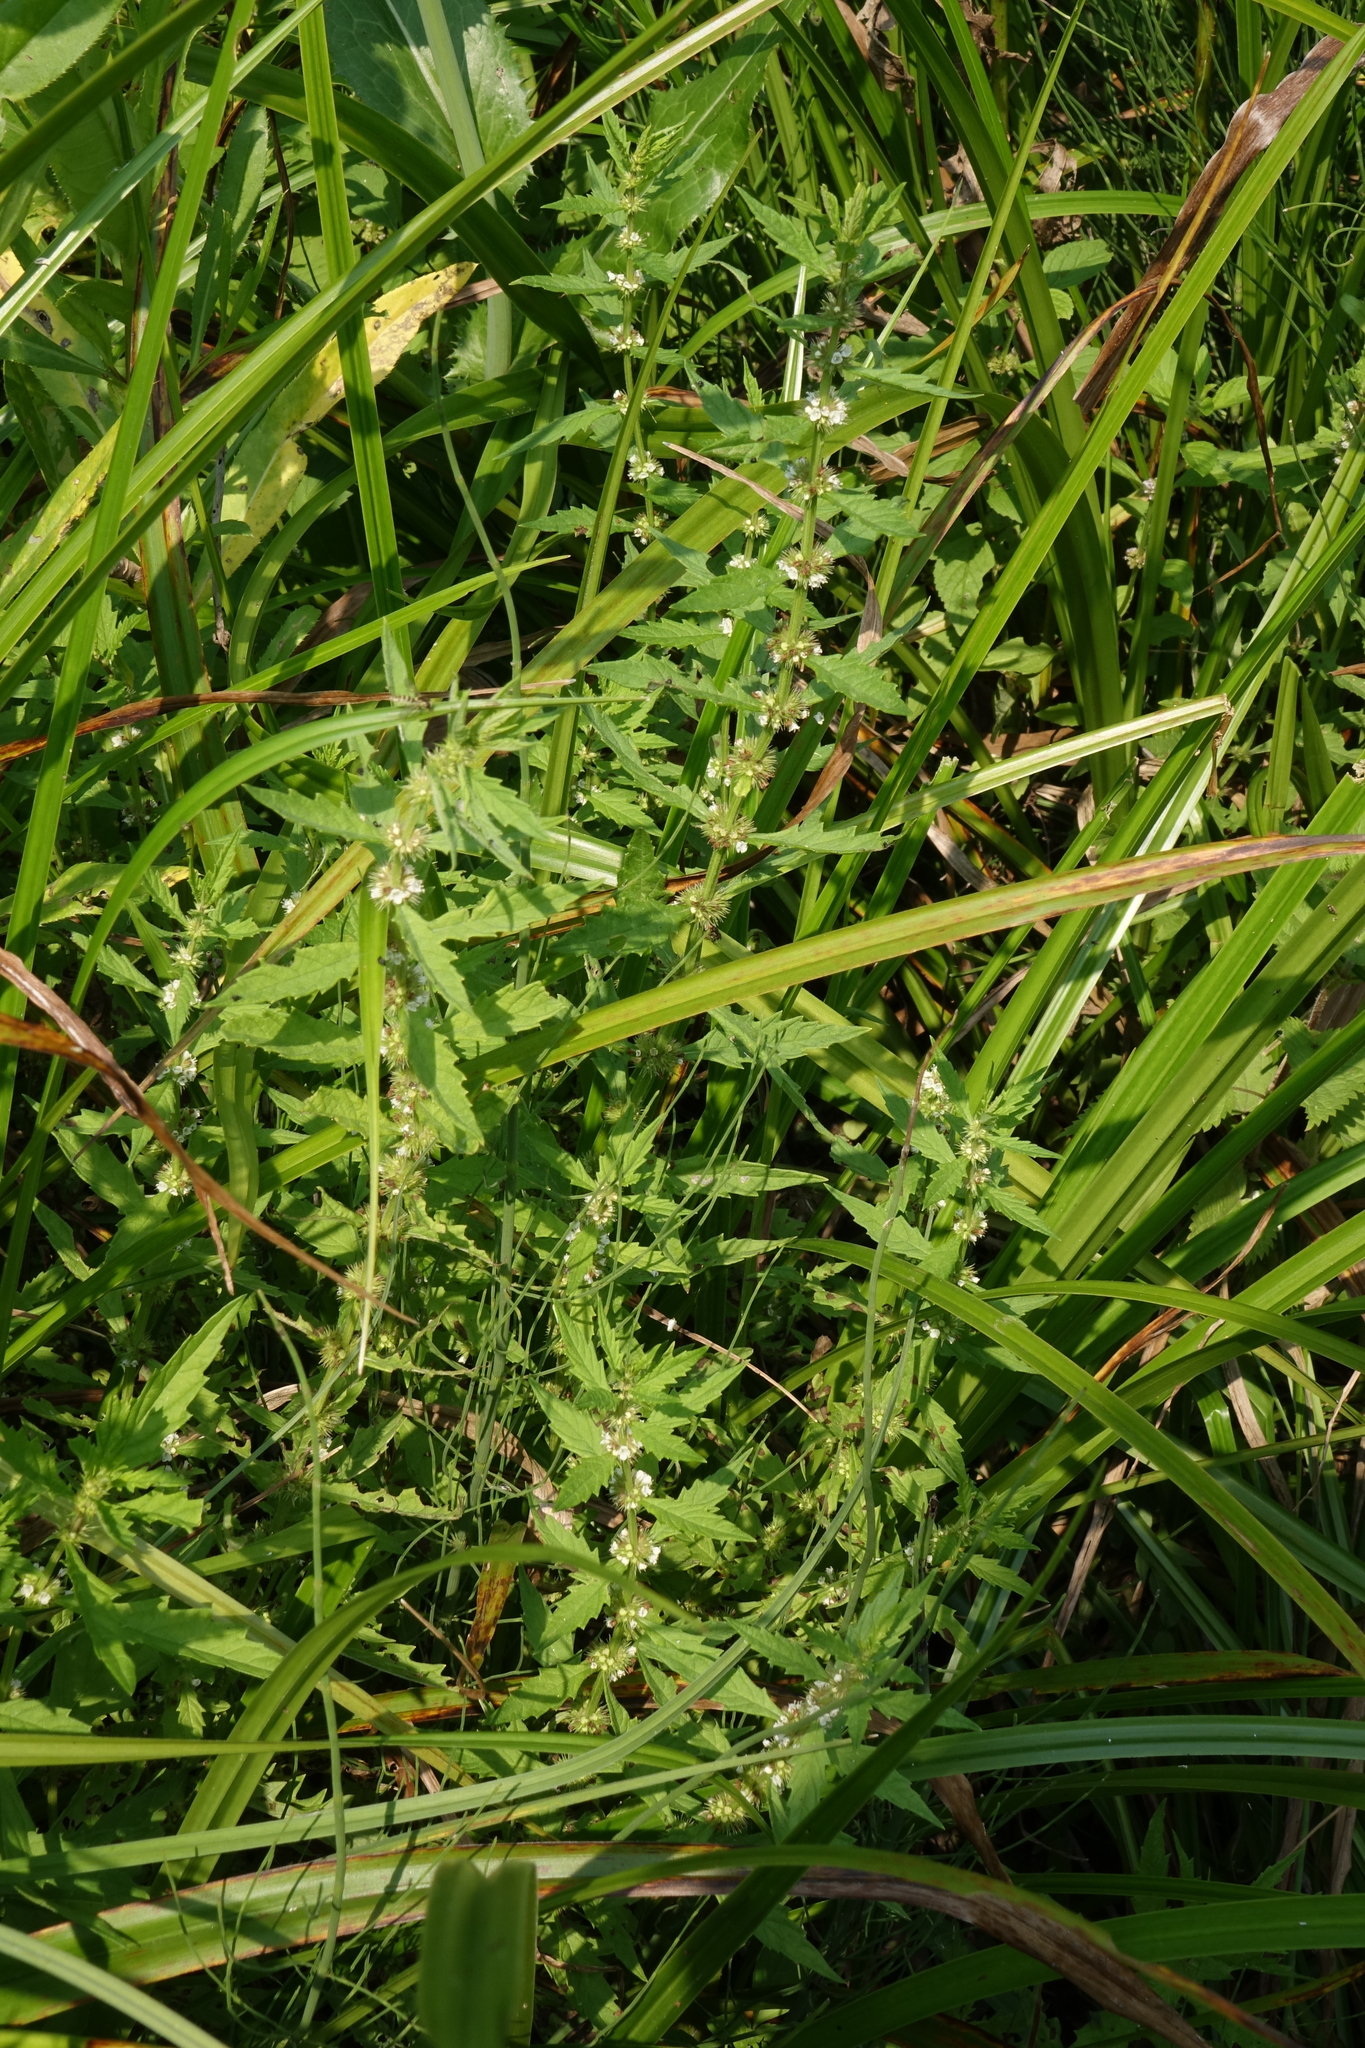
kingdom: Plantae
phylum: Tracheophyta
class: Magnoliopsida
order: Lamiales
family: Lamiaceae
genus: Lycopus
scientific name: Lycopus europaeus
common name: European bugleweed
